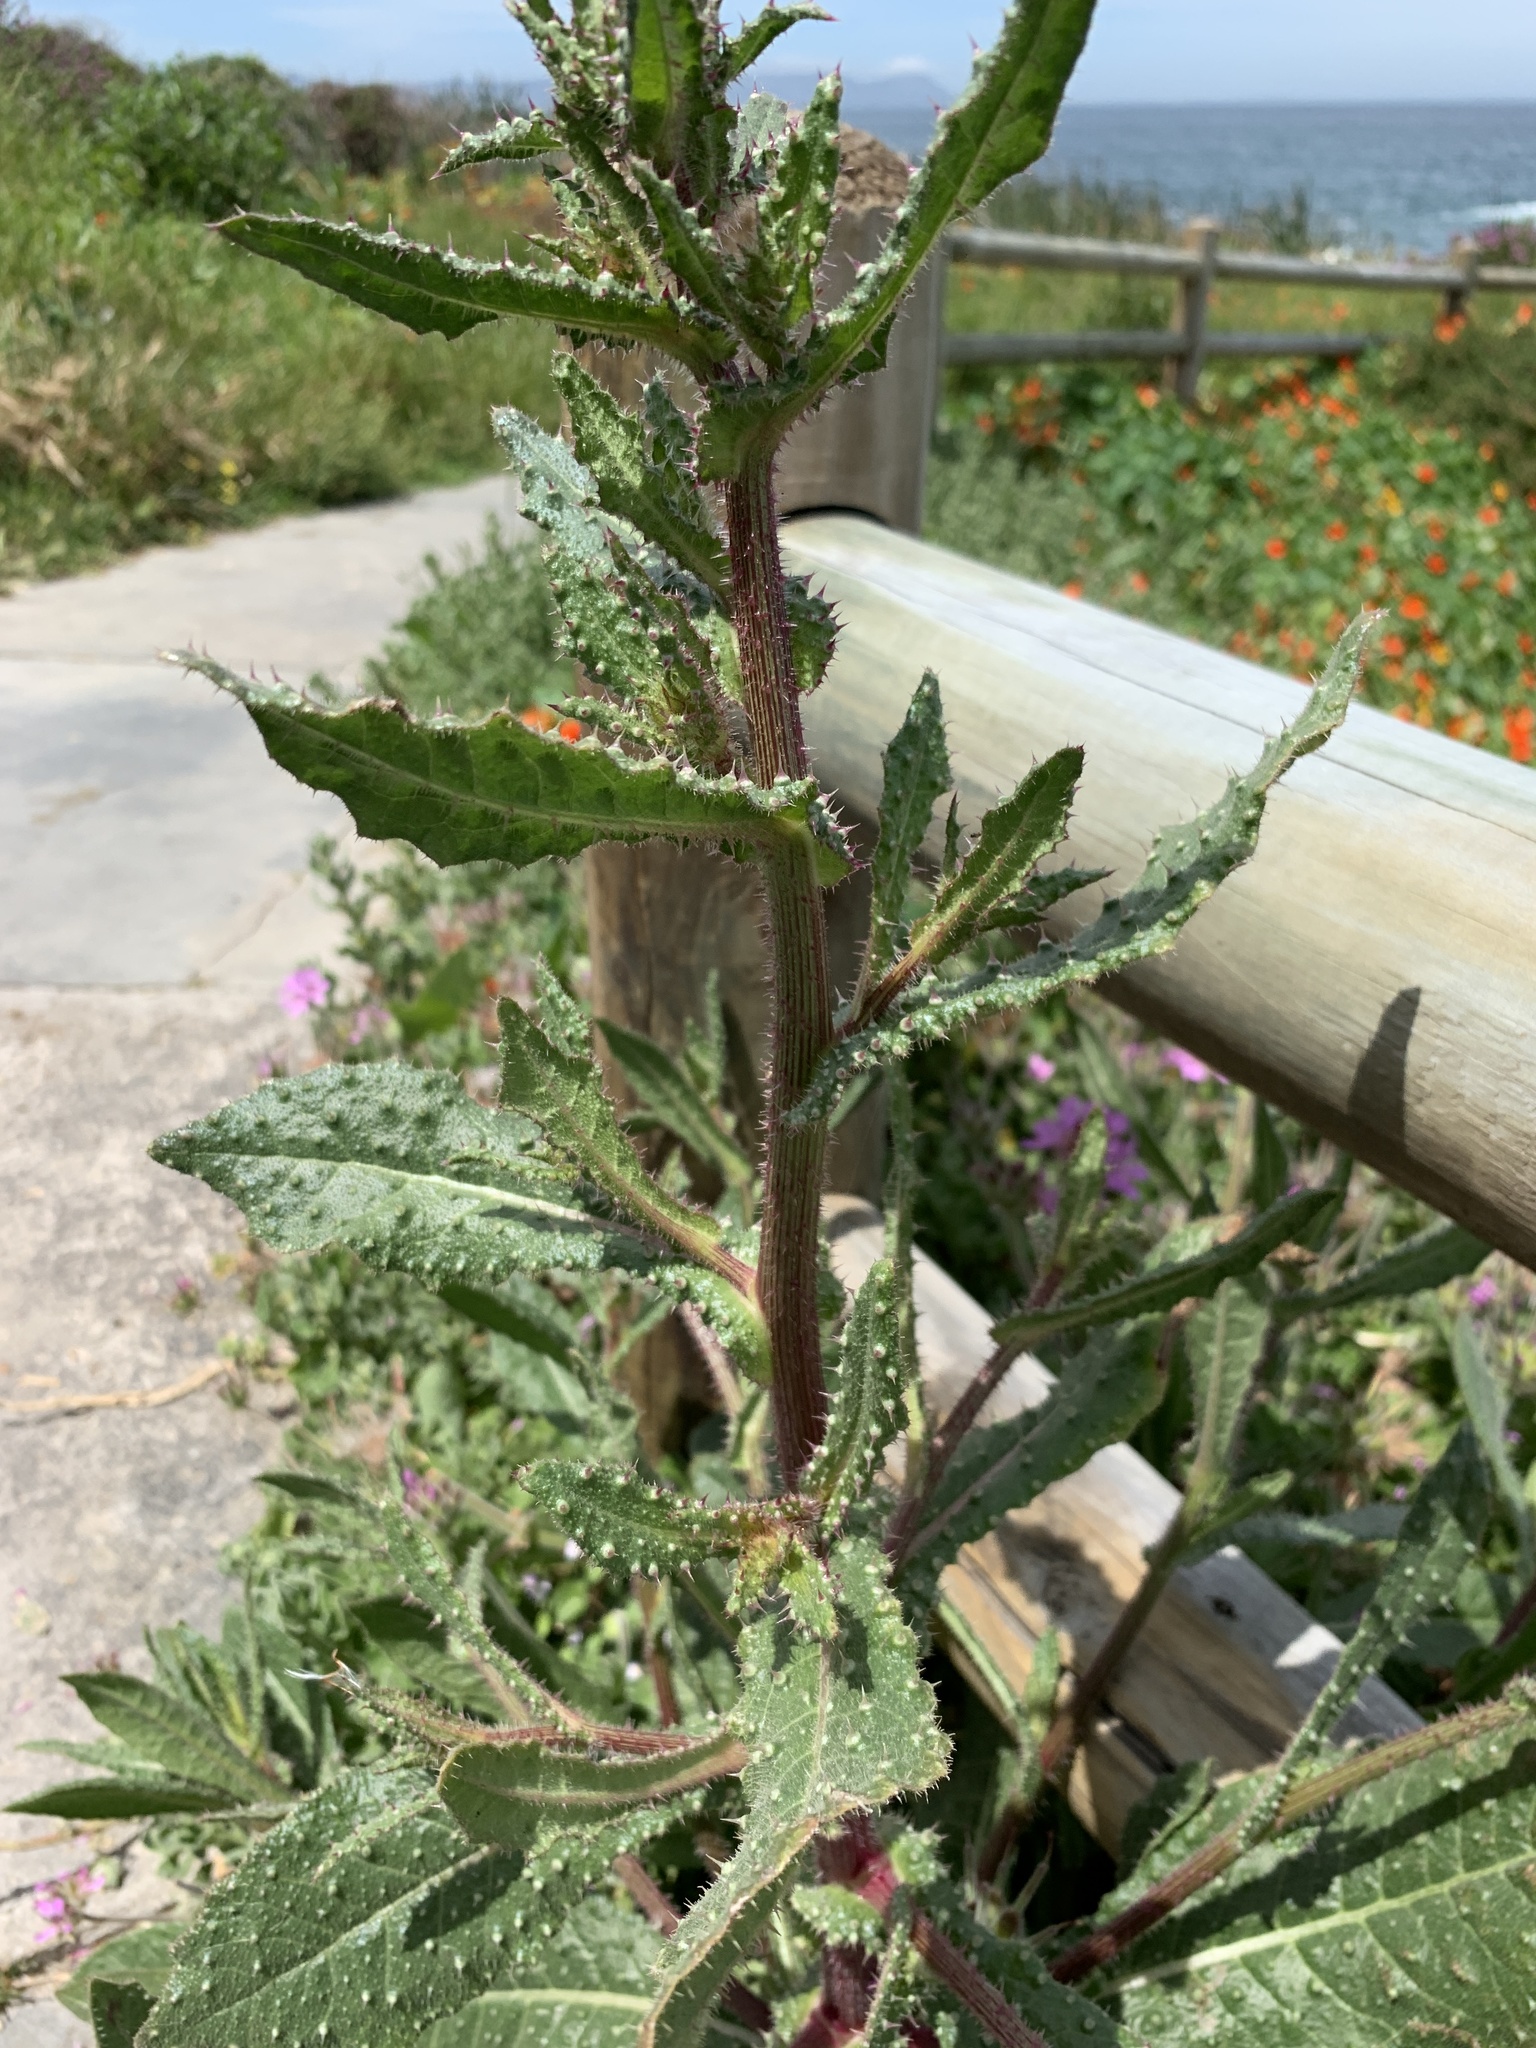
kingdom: Plantae
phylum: Tracheophyta
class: Magnoliopsida
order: Asterales
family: Asteraceae
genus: Helminthotheca
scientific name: Helminthotheca echioides
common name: Ox-tongue
